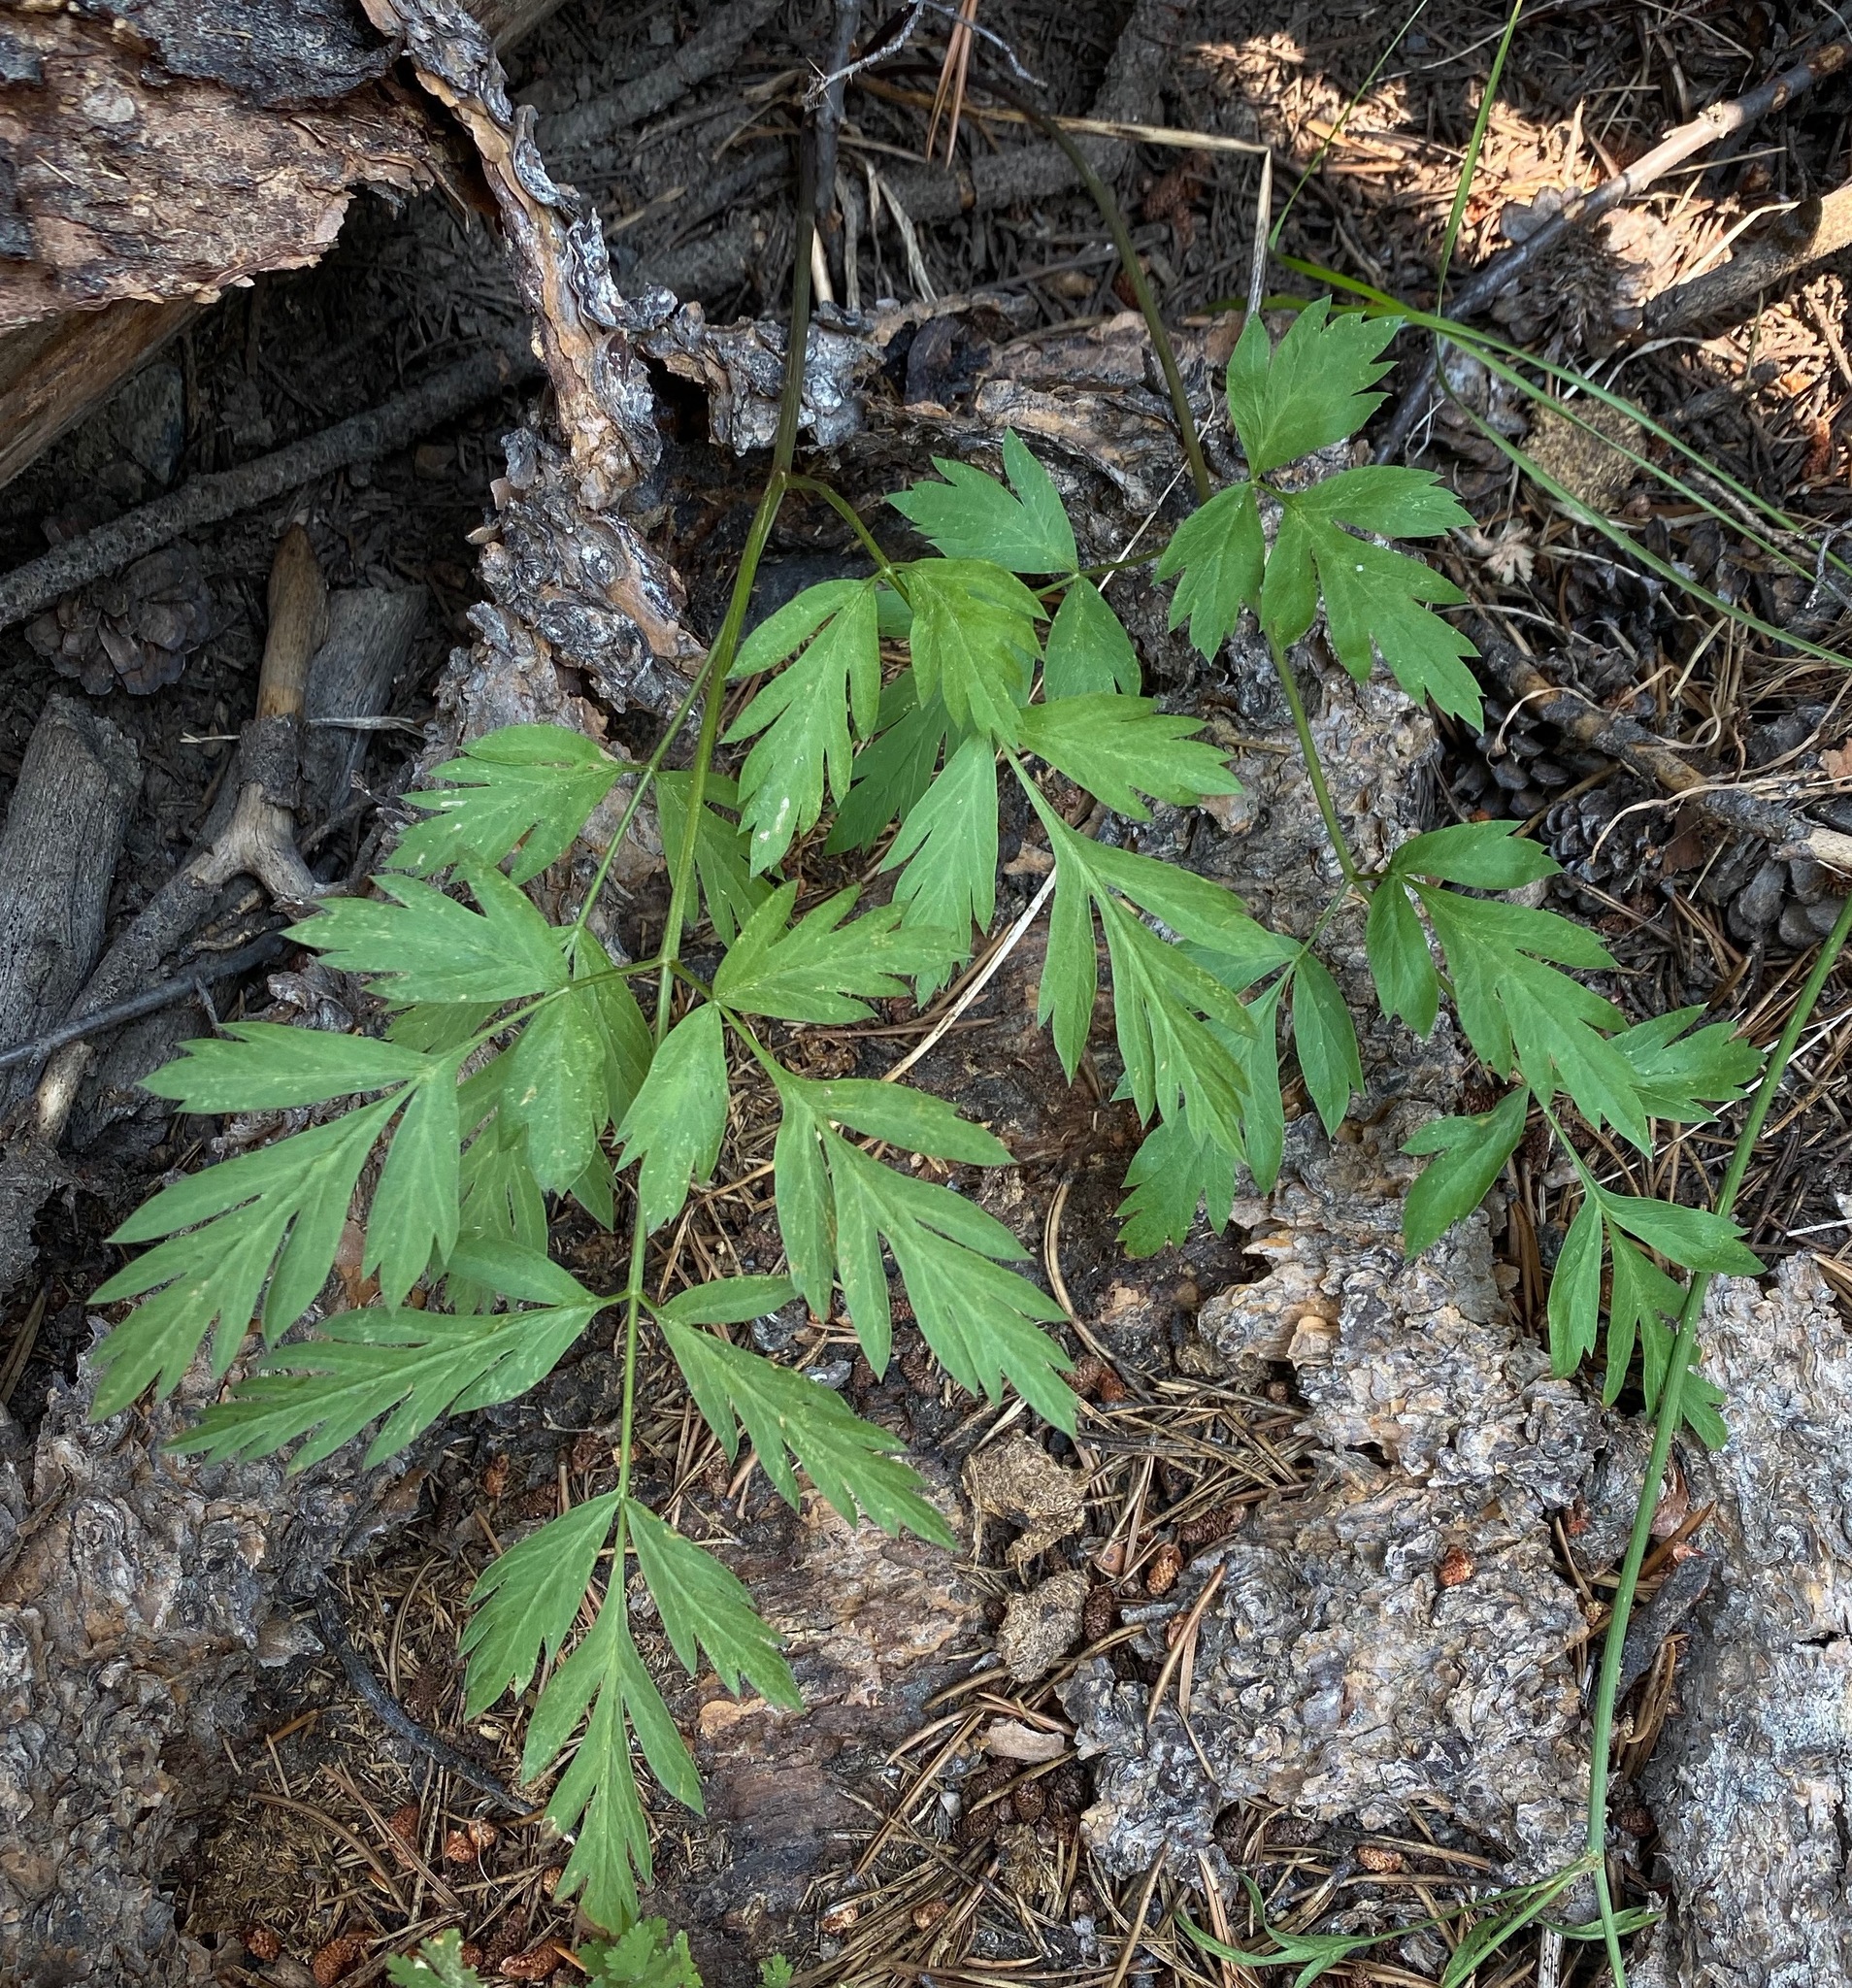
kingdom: Plantae
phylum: Tracheophyta
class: Magnoliopsida
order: Apiales
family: Apiaceae
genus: Ligusticum
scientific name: Ligusticum grayi
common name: Gray's licorice-root
